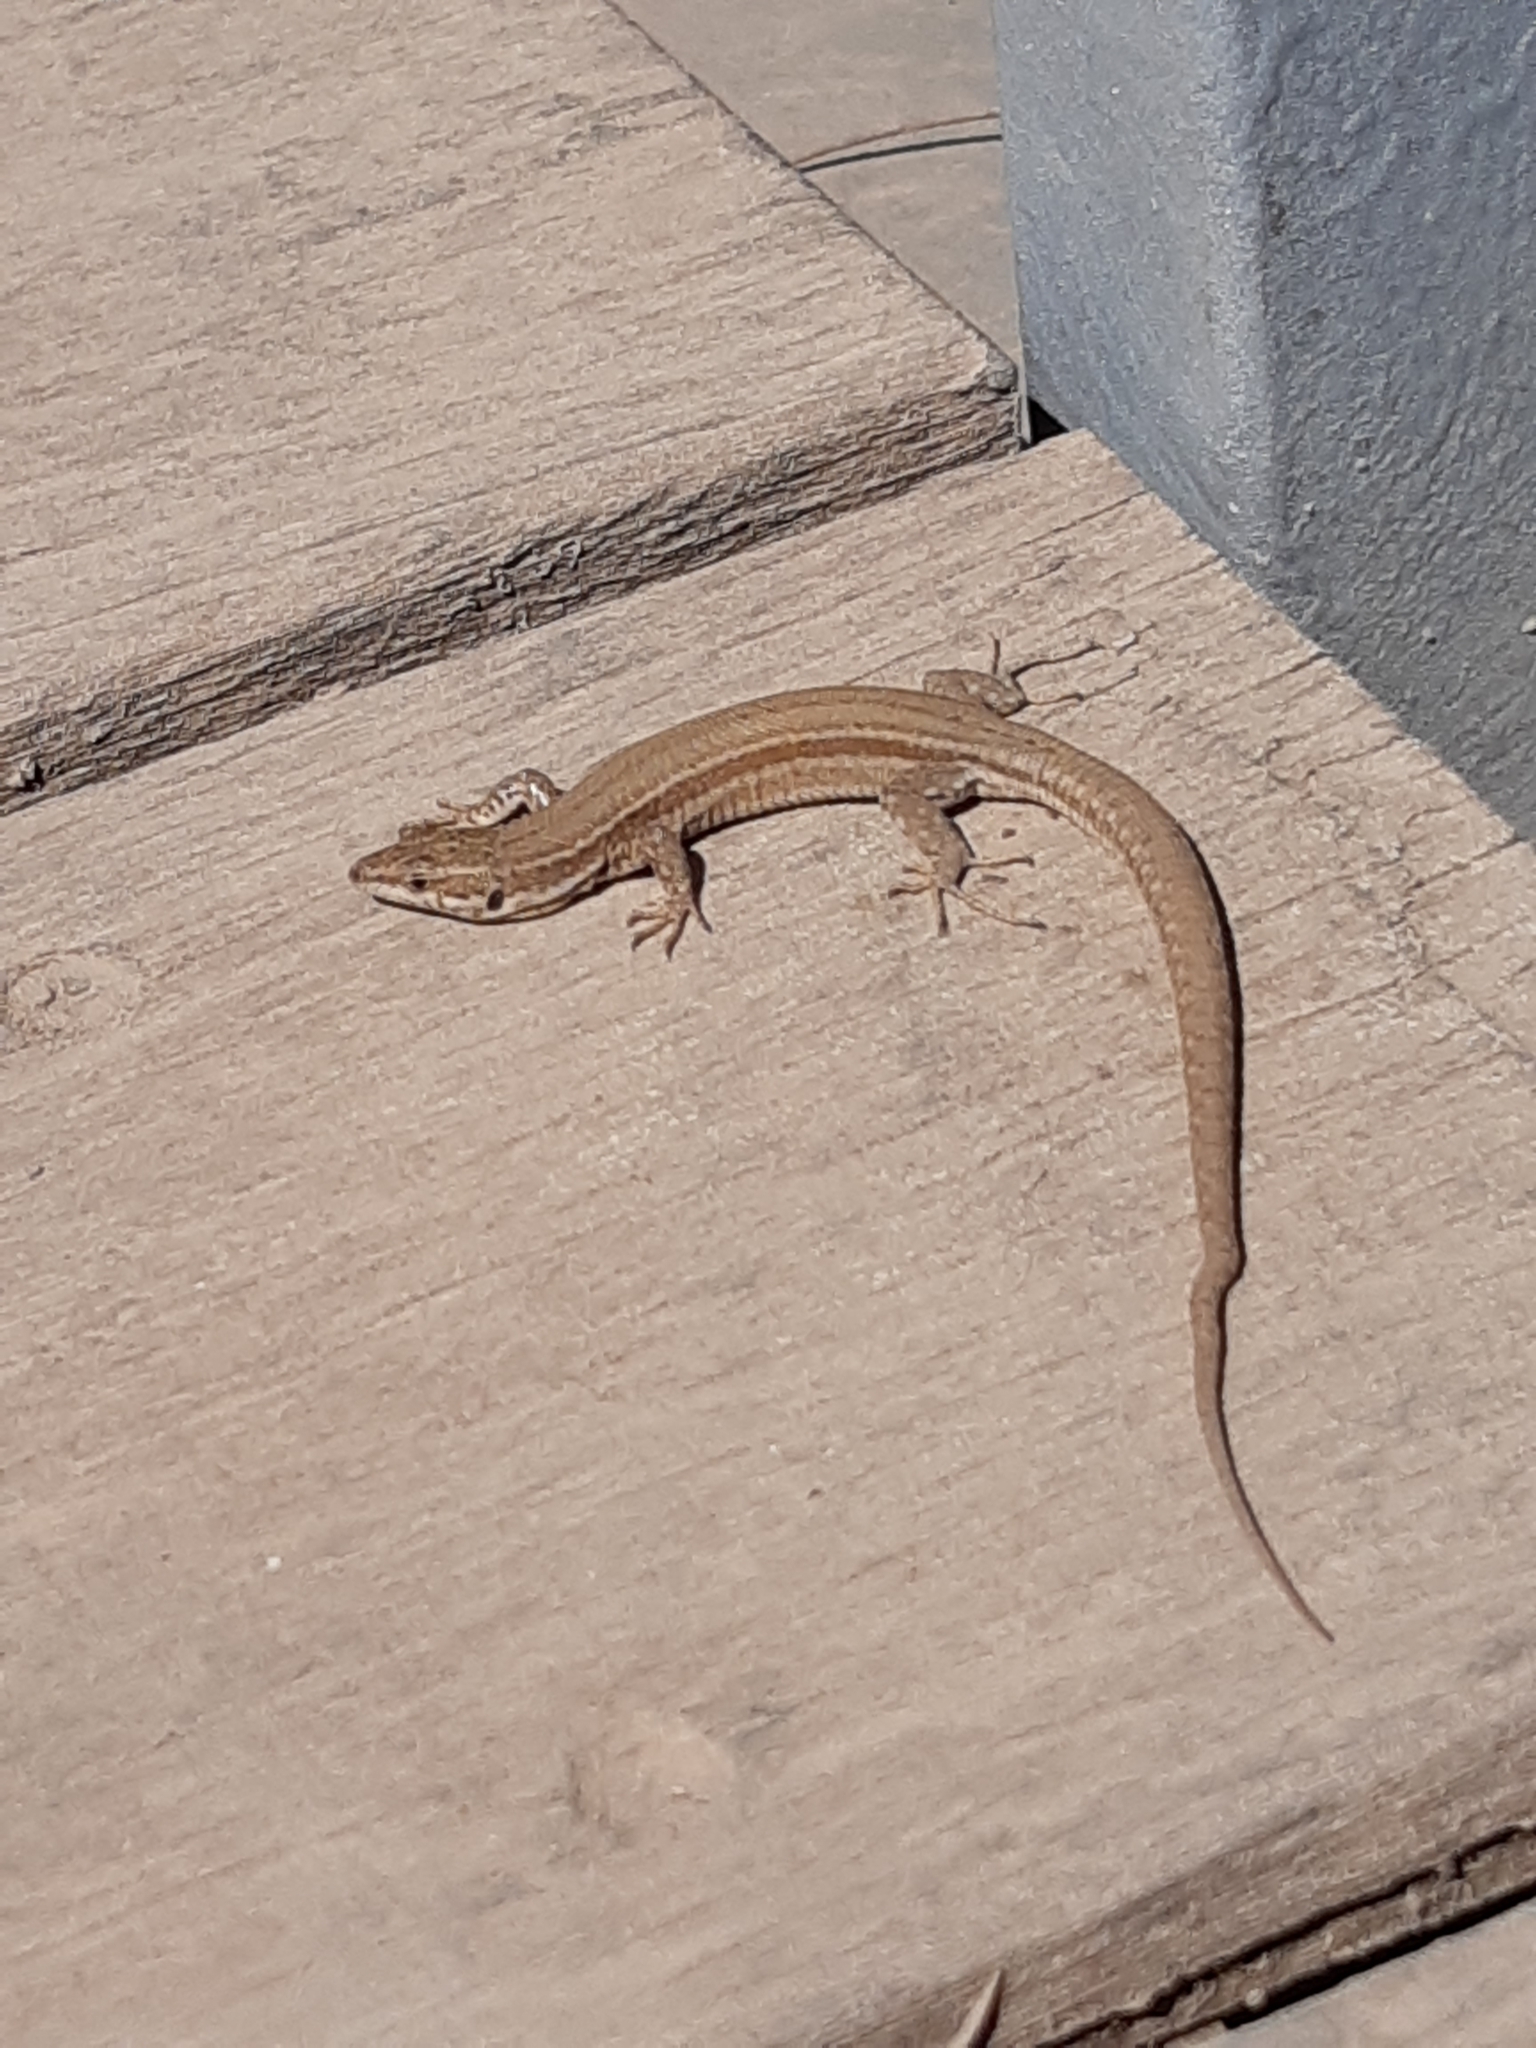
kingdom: Animalia
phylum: Chordata
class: Squamata
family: Lacertidae
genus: Podarcis
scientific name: Podarcis liolepis
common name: Catalonian wall lizard
